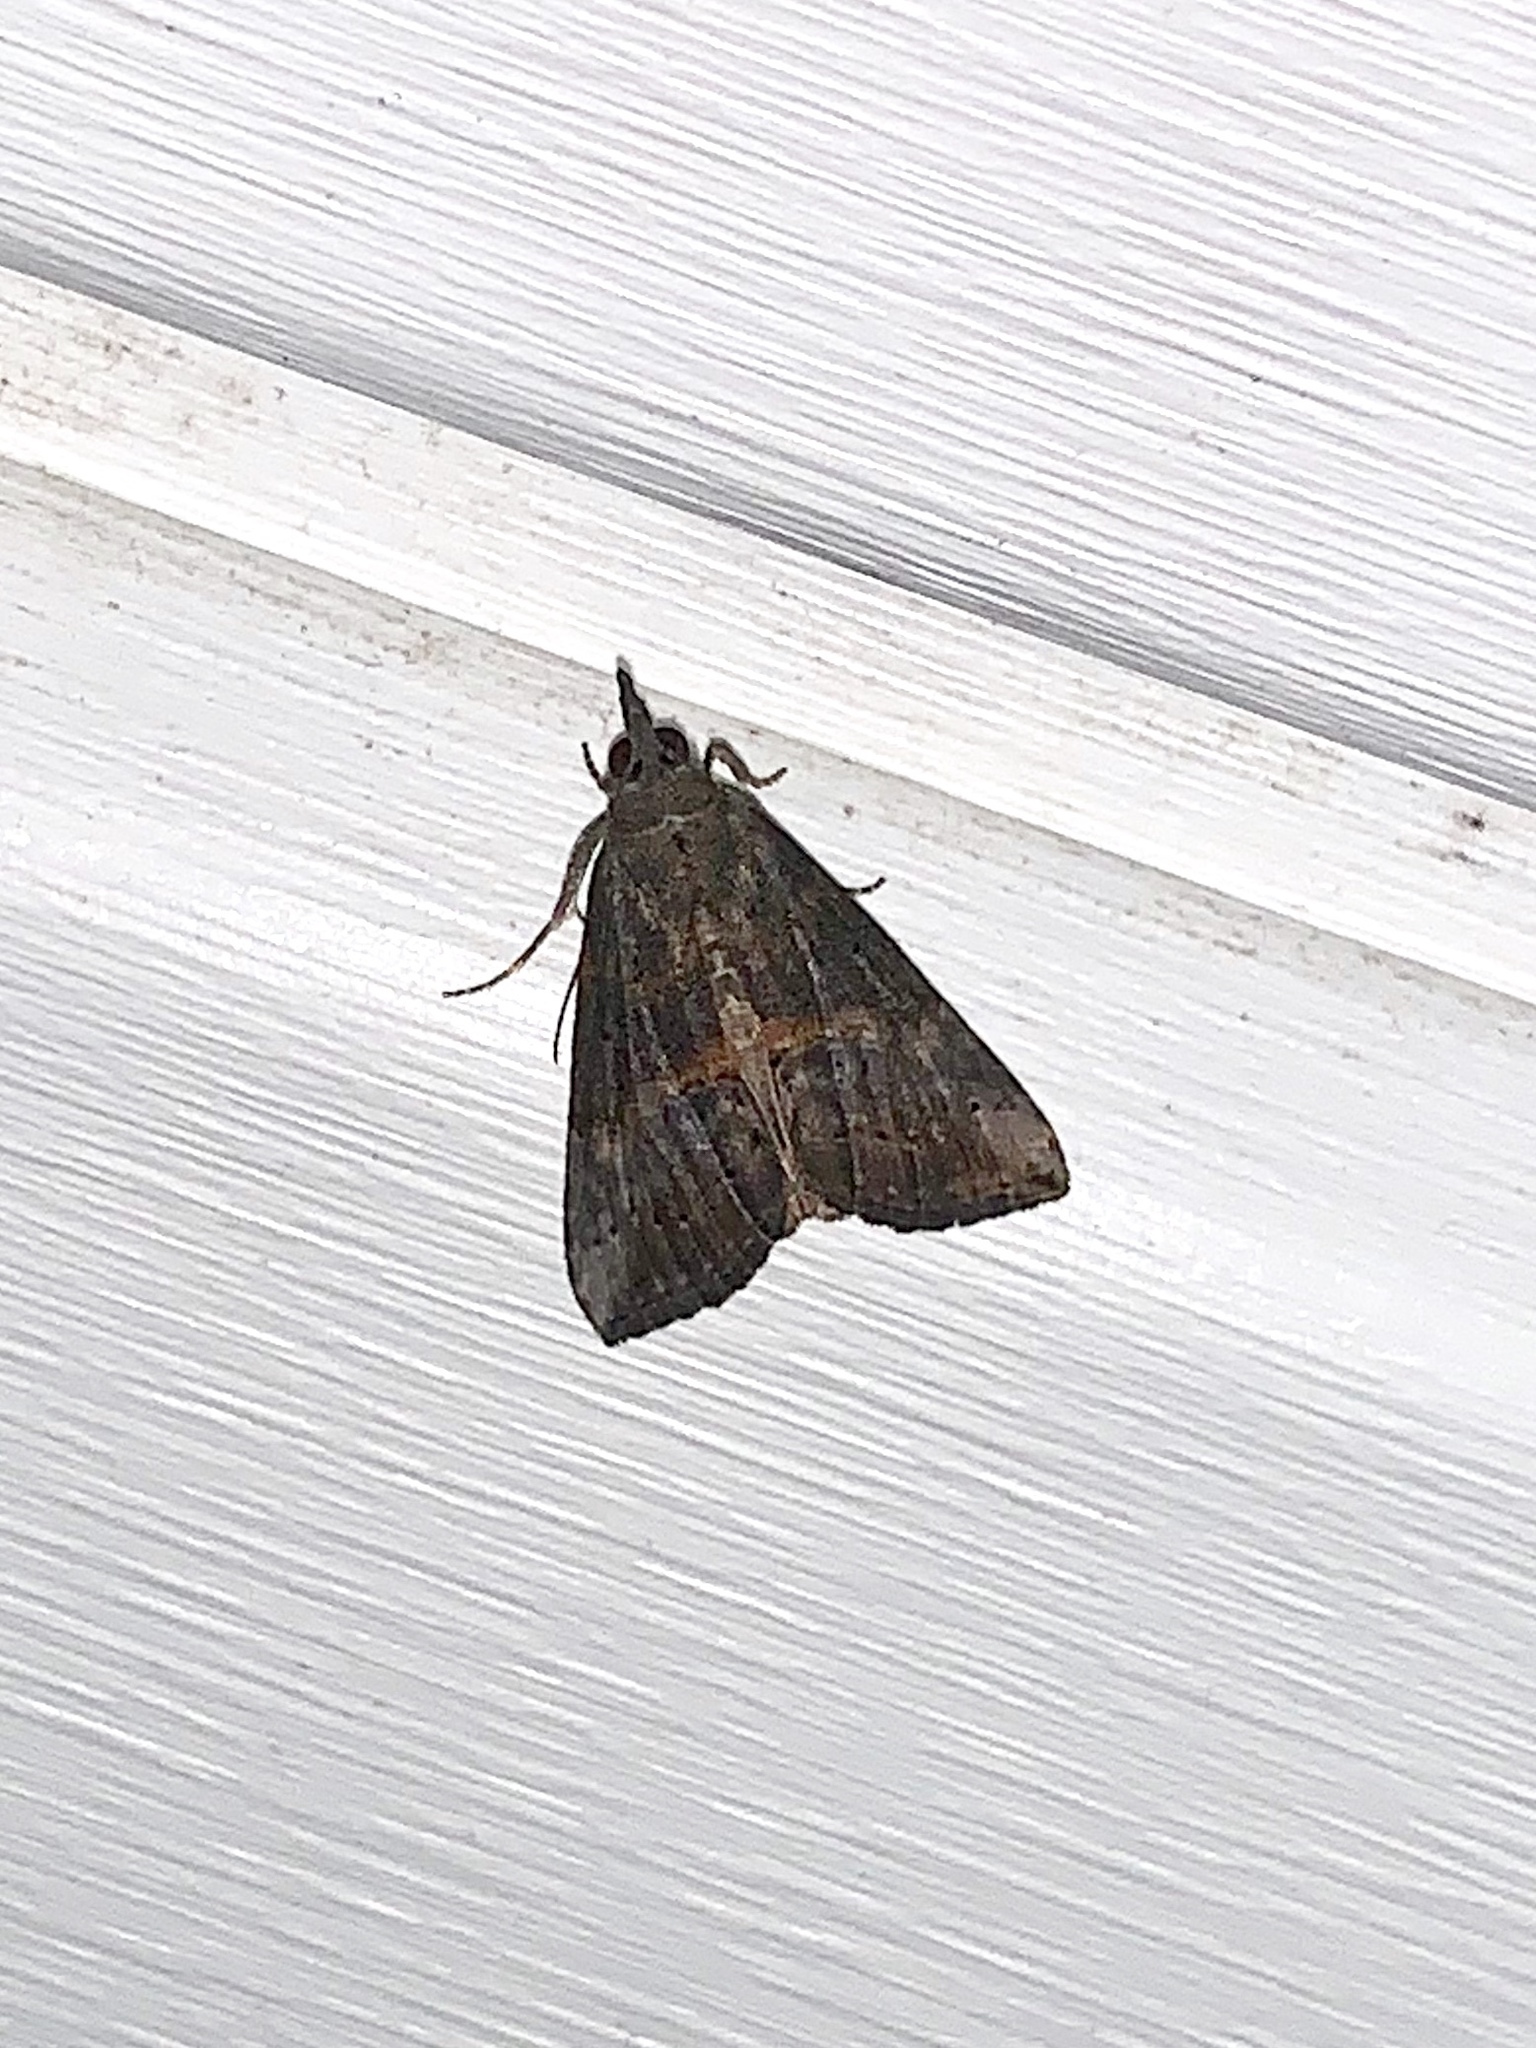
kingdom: Animalia
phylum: Arthropoda
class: Insecta
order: Lepidoptera
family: Erebidae
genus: Hypena
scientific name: Hypena scabra
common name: Green cloverworm
